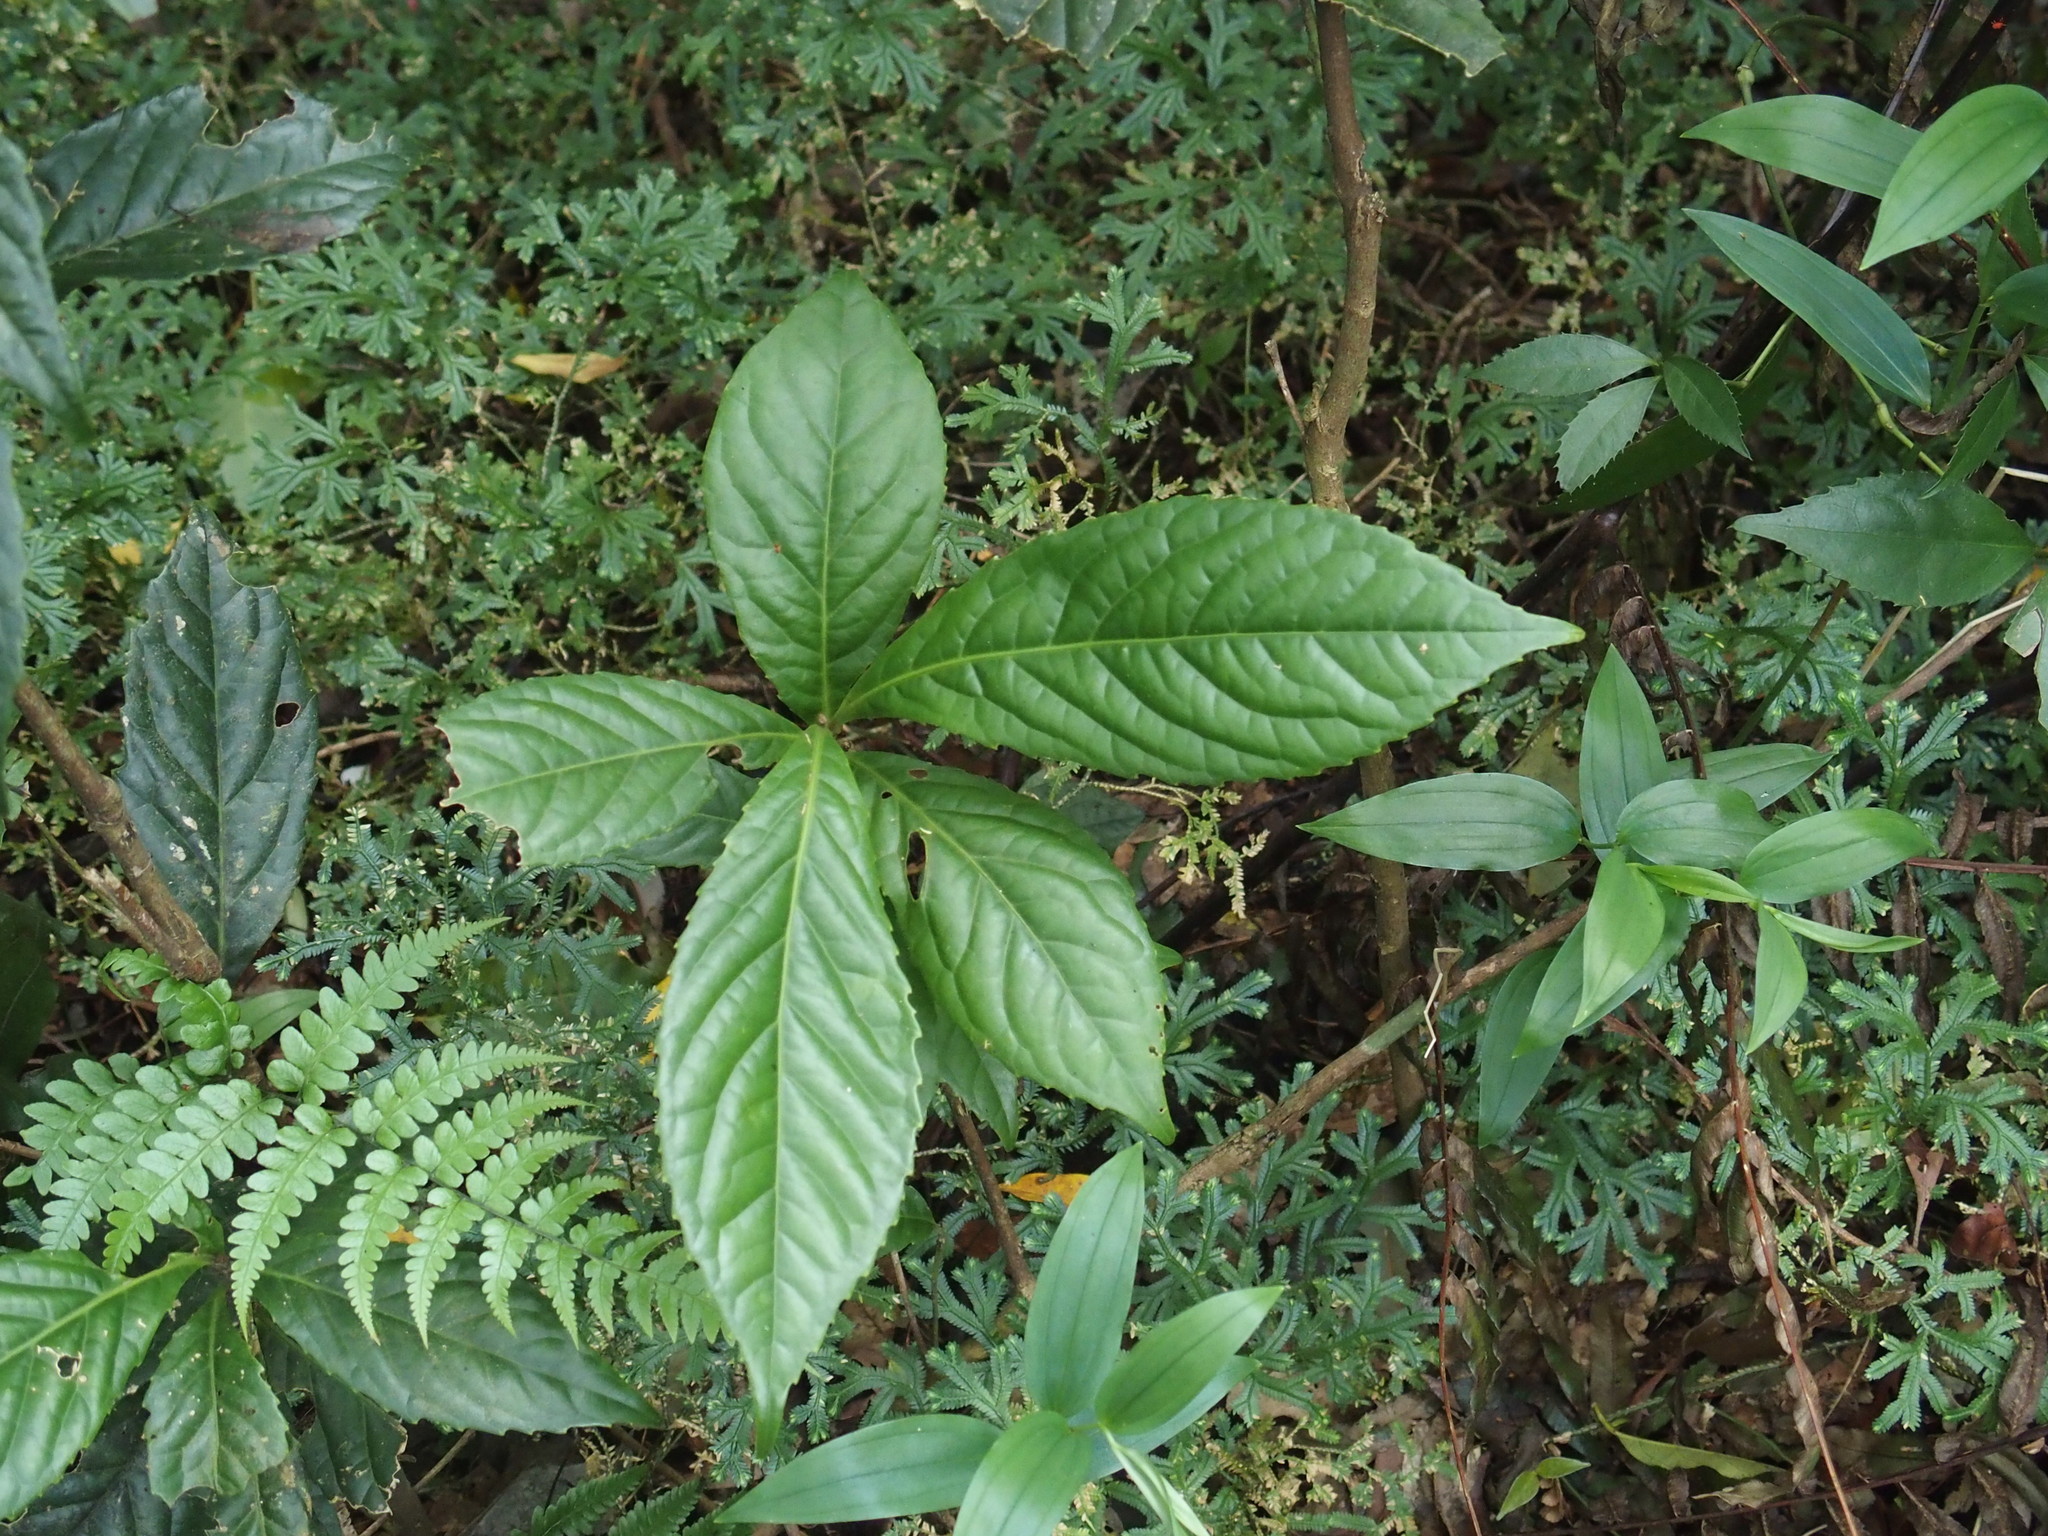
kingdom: Plantae
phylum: Tracheophyta
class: Magnoliopsida
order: Proteales
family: Proteaceae
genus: Helicia
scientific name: Helicia formosana
